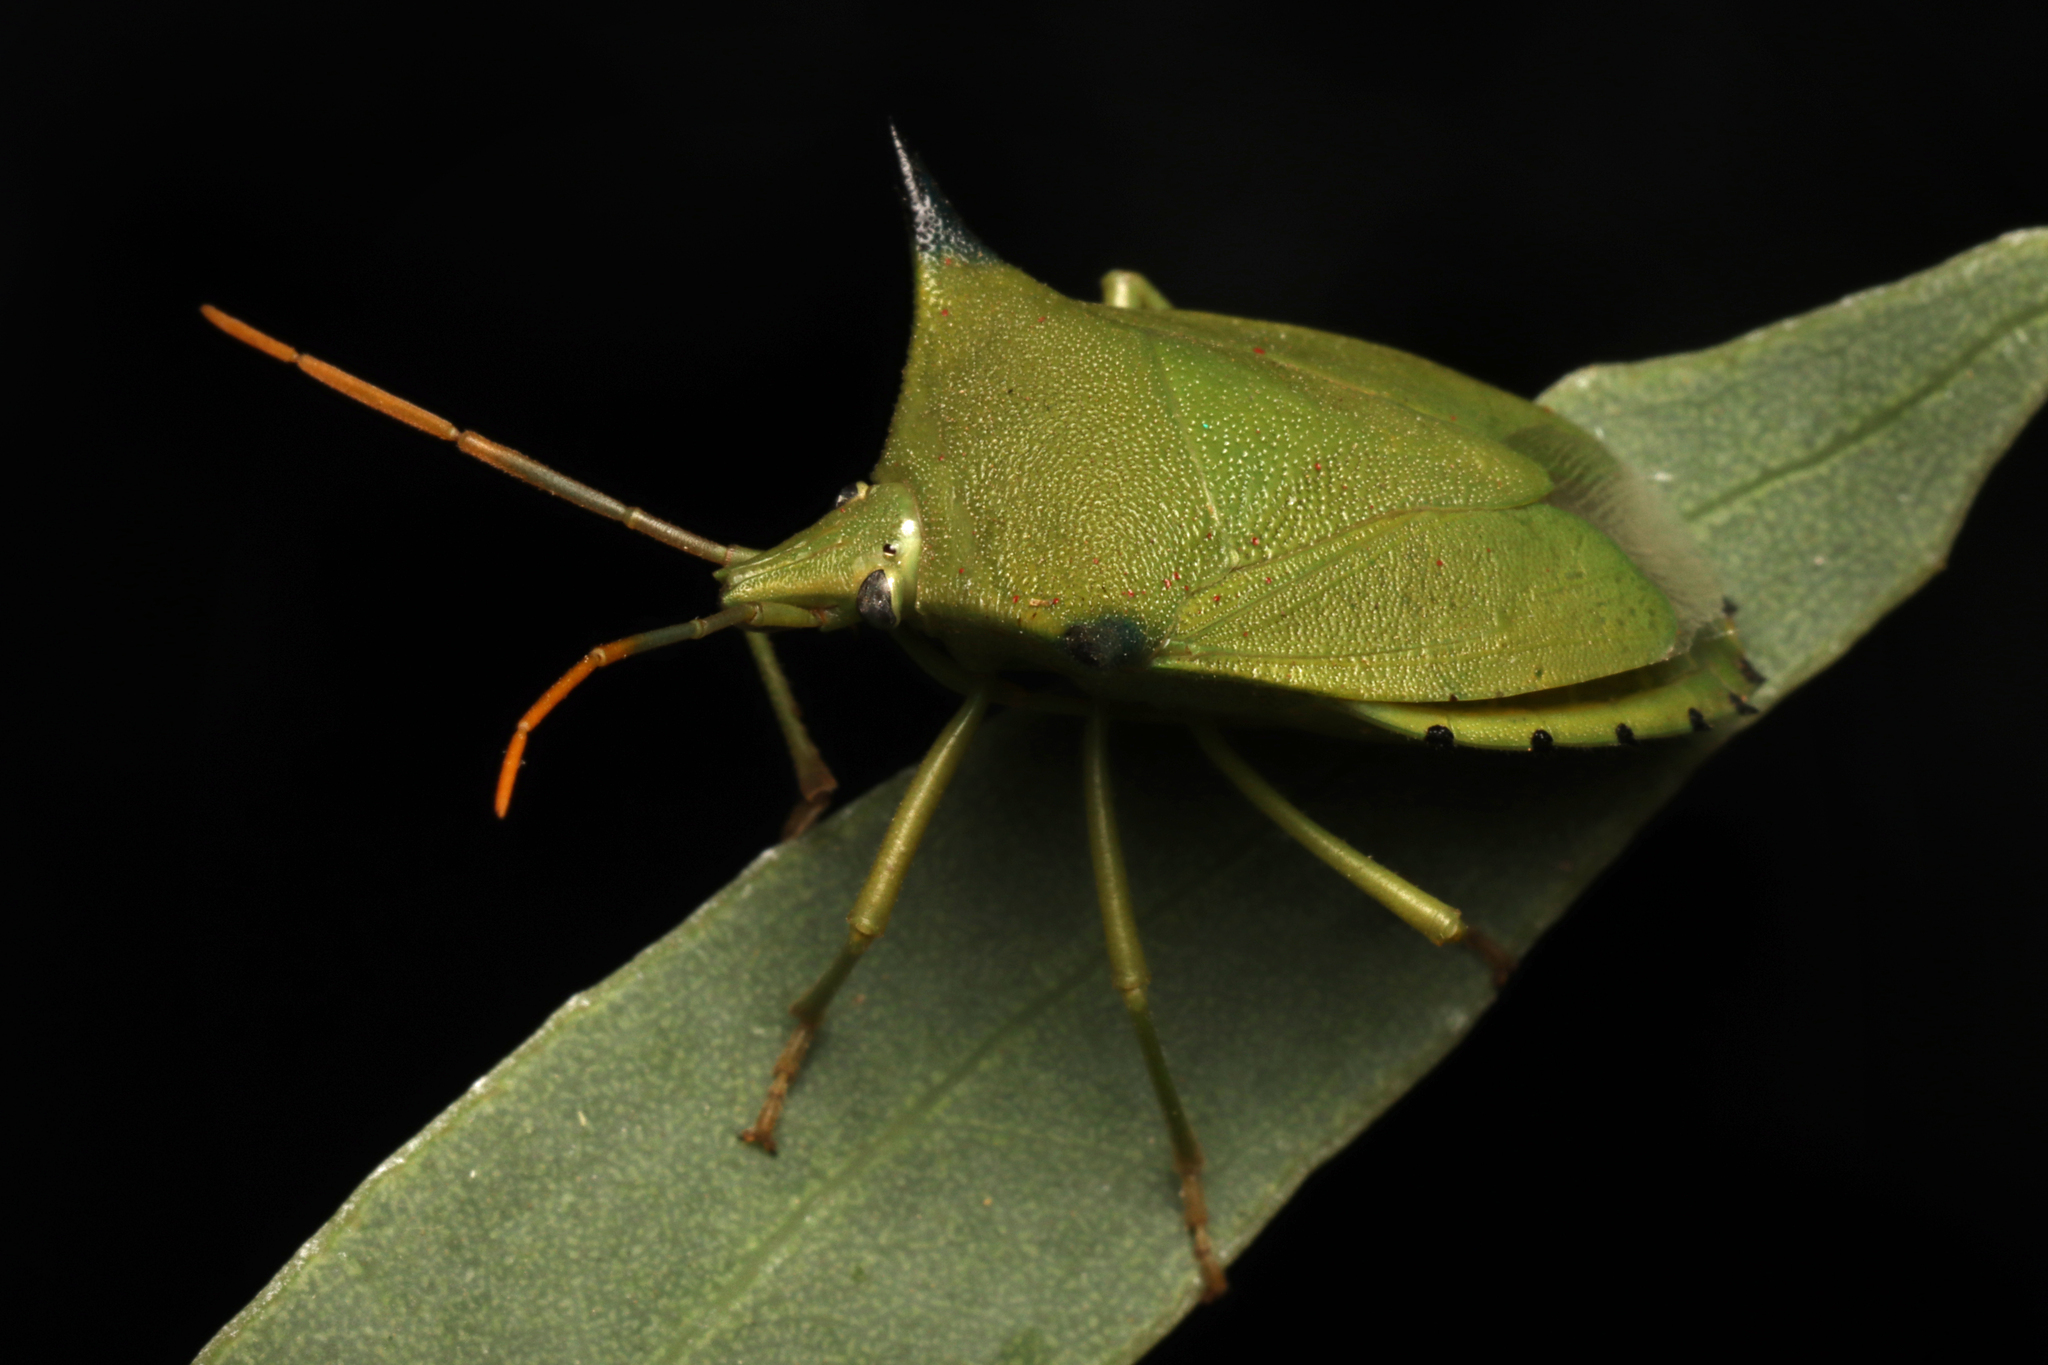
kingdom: Animalia
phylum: Arthropoda
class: Insecta
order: Hemiptera
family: Pentatomidae
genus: Biprorulus
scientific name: Biprorulus
